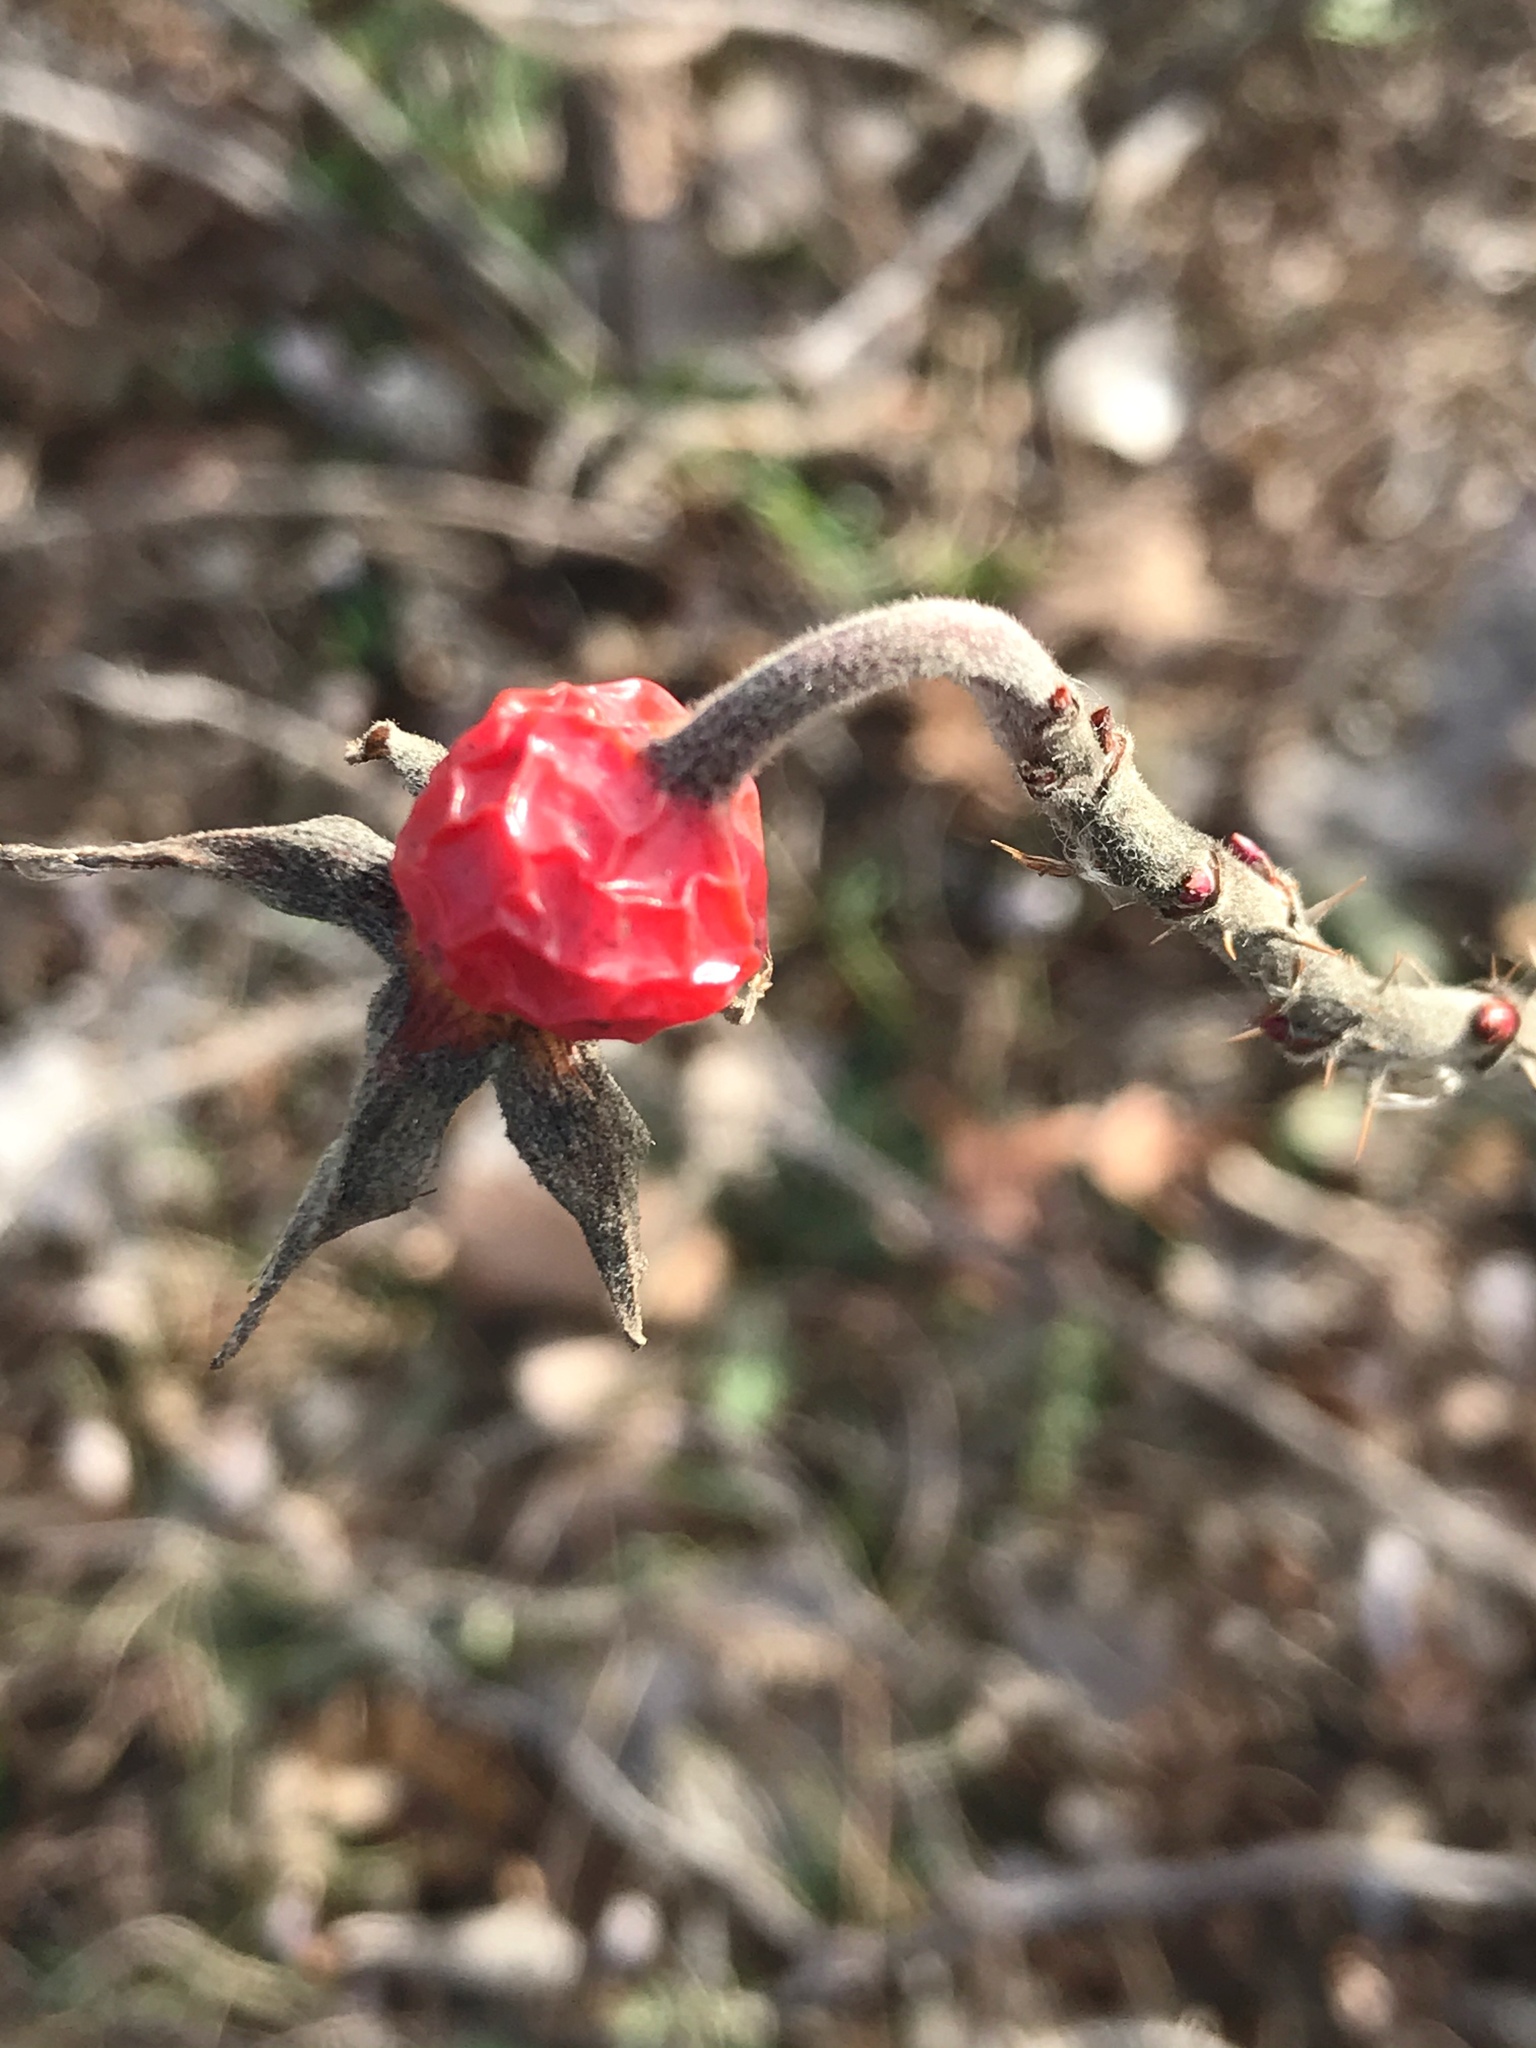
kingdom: Plantae
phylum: Tracheophyta
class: Magnoliopsida
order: Rosales
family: Rosaceae
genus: Rosa
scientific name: Rosa rugosa
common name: Japanese rose
